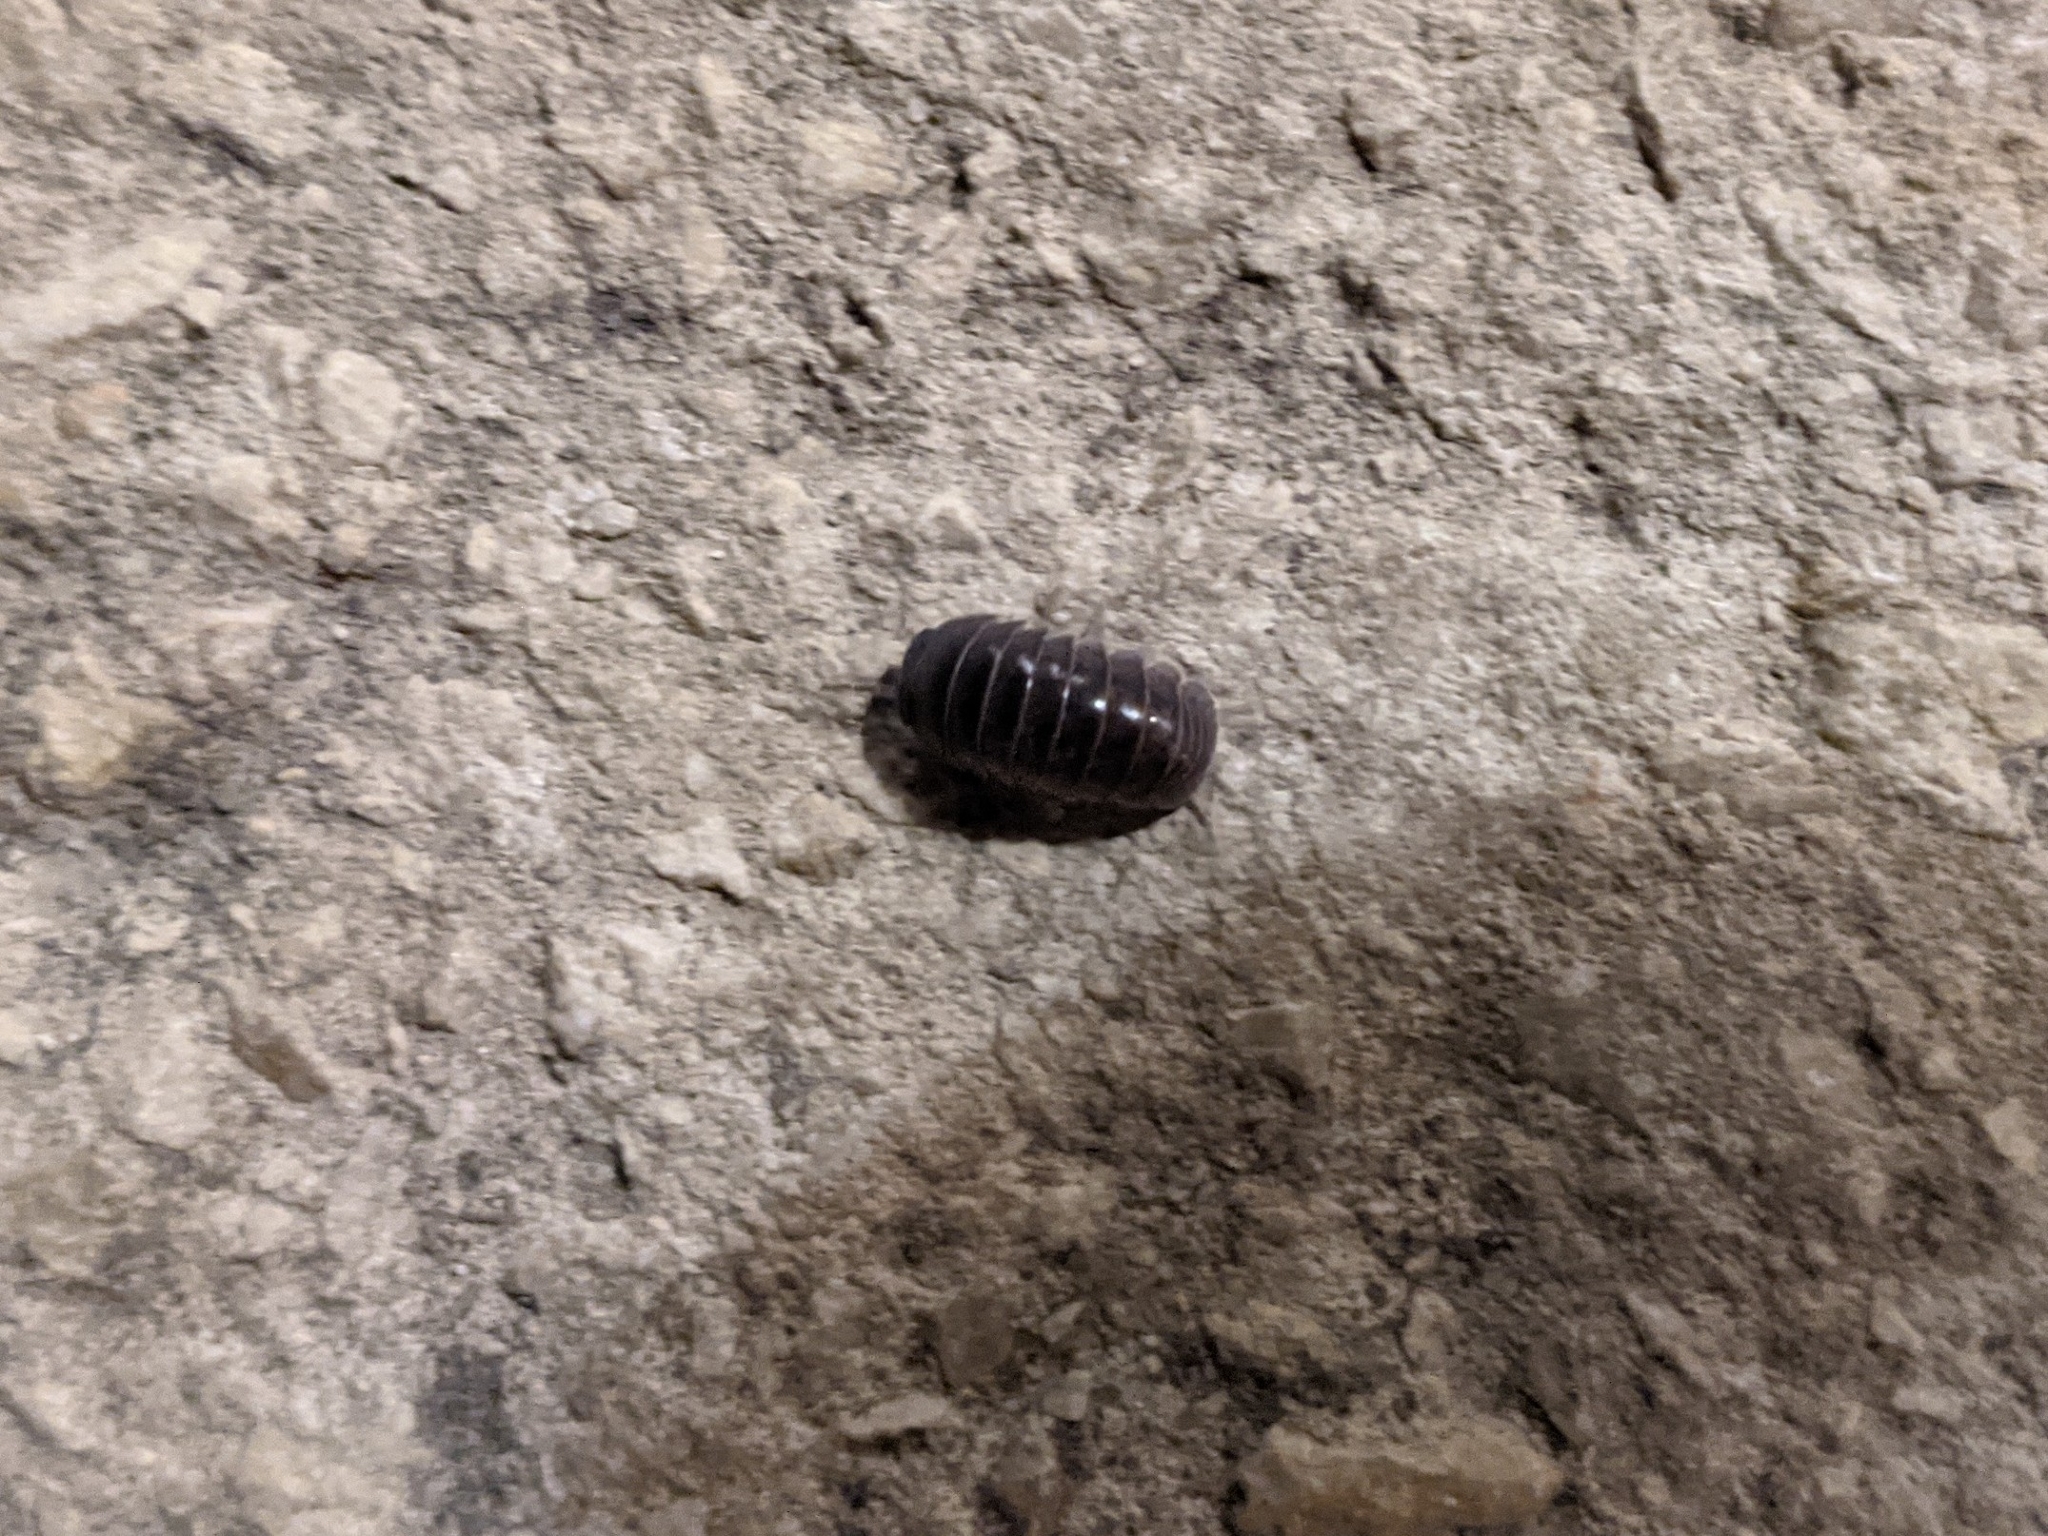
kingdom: Animalia
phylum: Arthropoda
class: Malacostraca
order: Isopoda
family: Armadillidae
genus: Armadillo
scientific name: Armadillo officinalis
